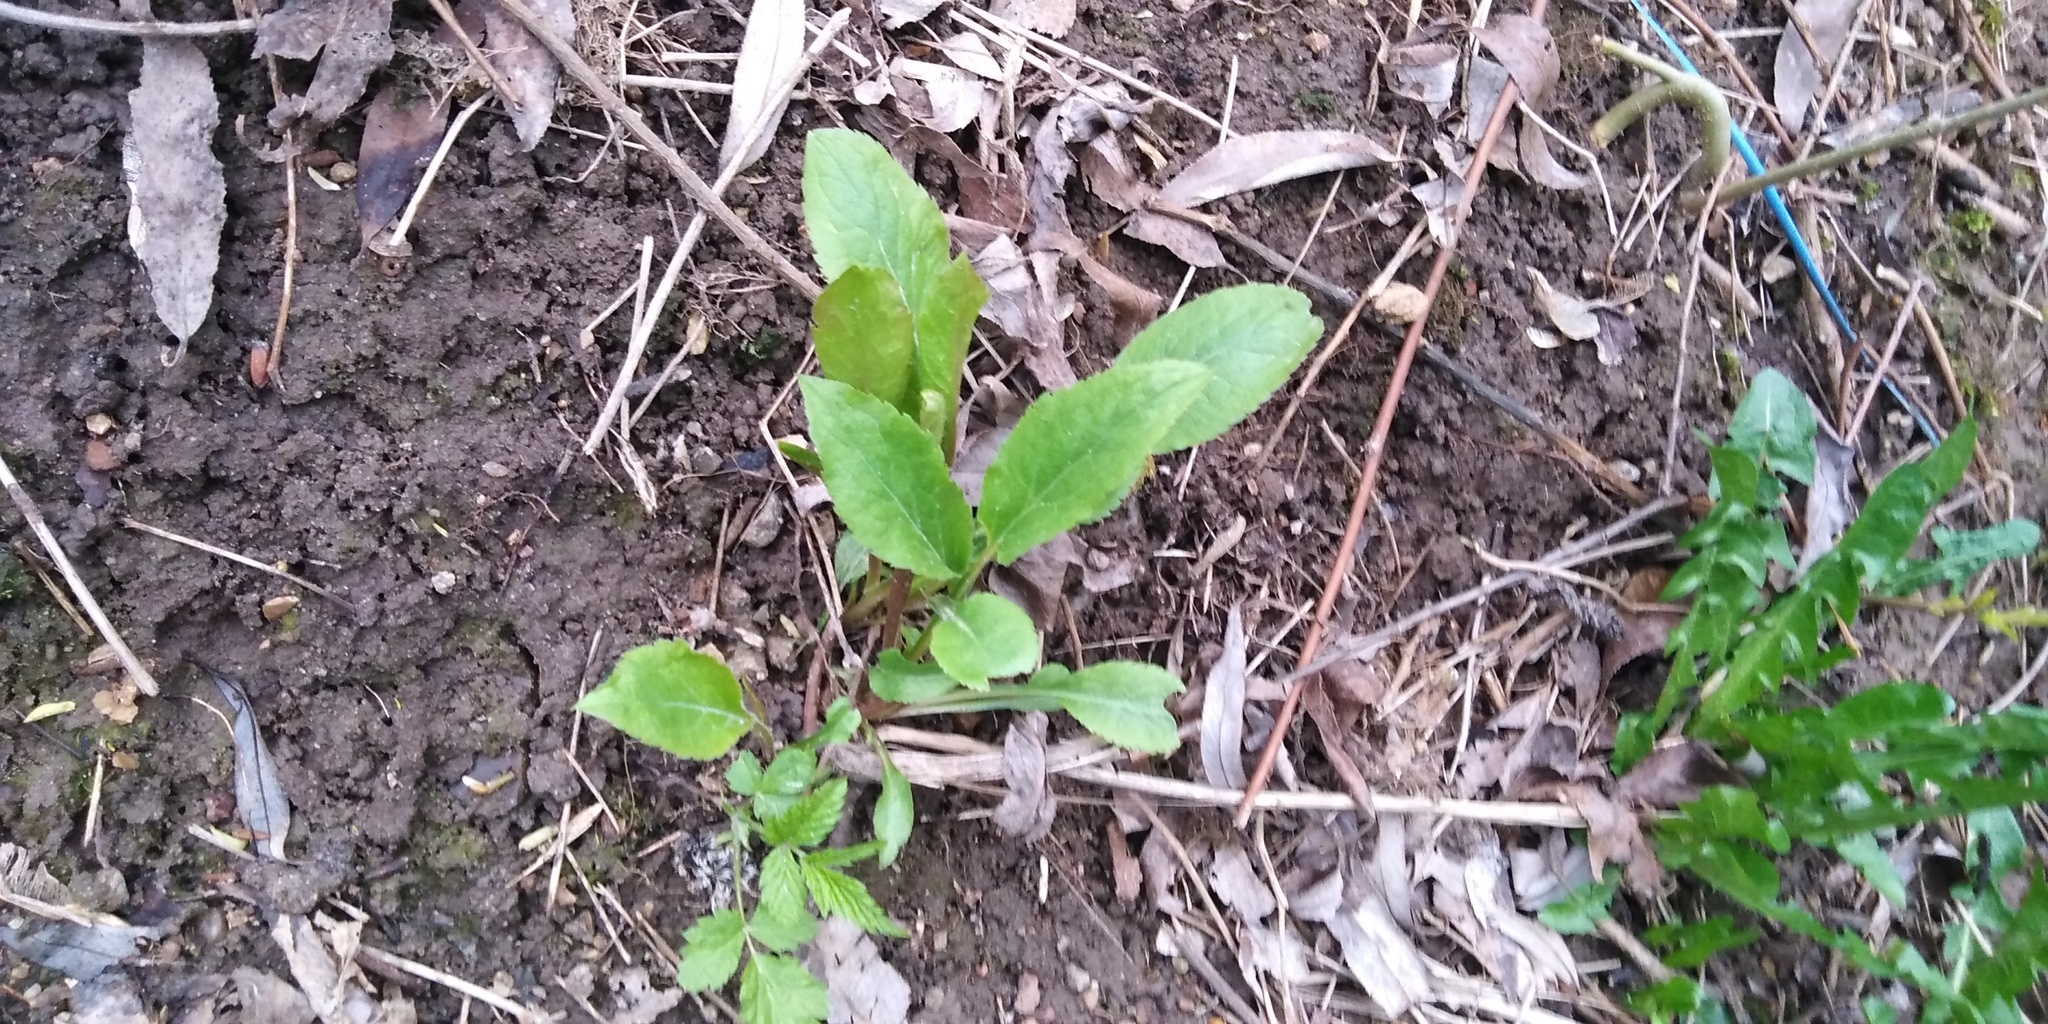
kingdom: Plantae
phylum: Tracheophyta
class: Magnoliopsida
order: Asterales
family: Asteraceae
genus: Solidago
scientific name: Solidago virgaurea
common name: Goldenrod
